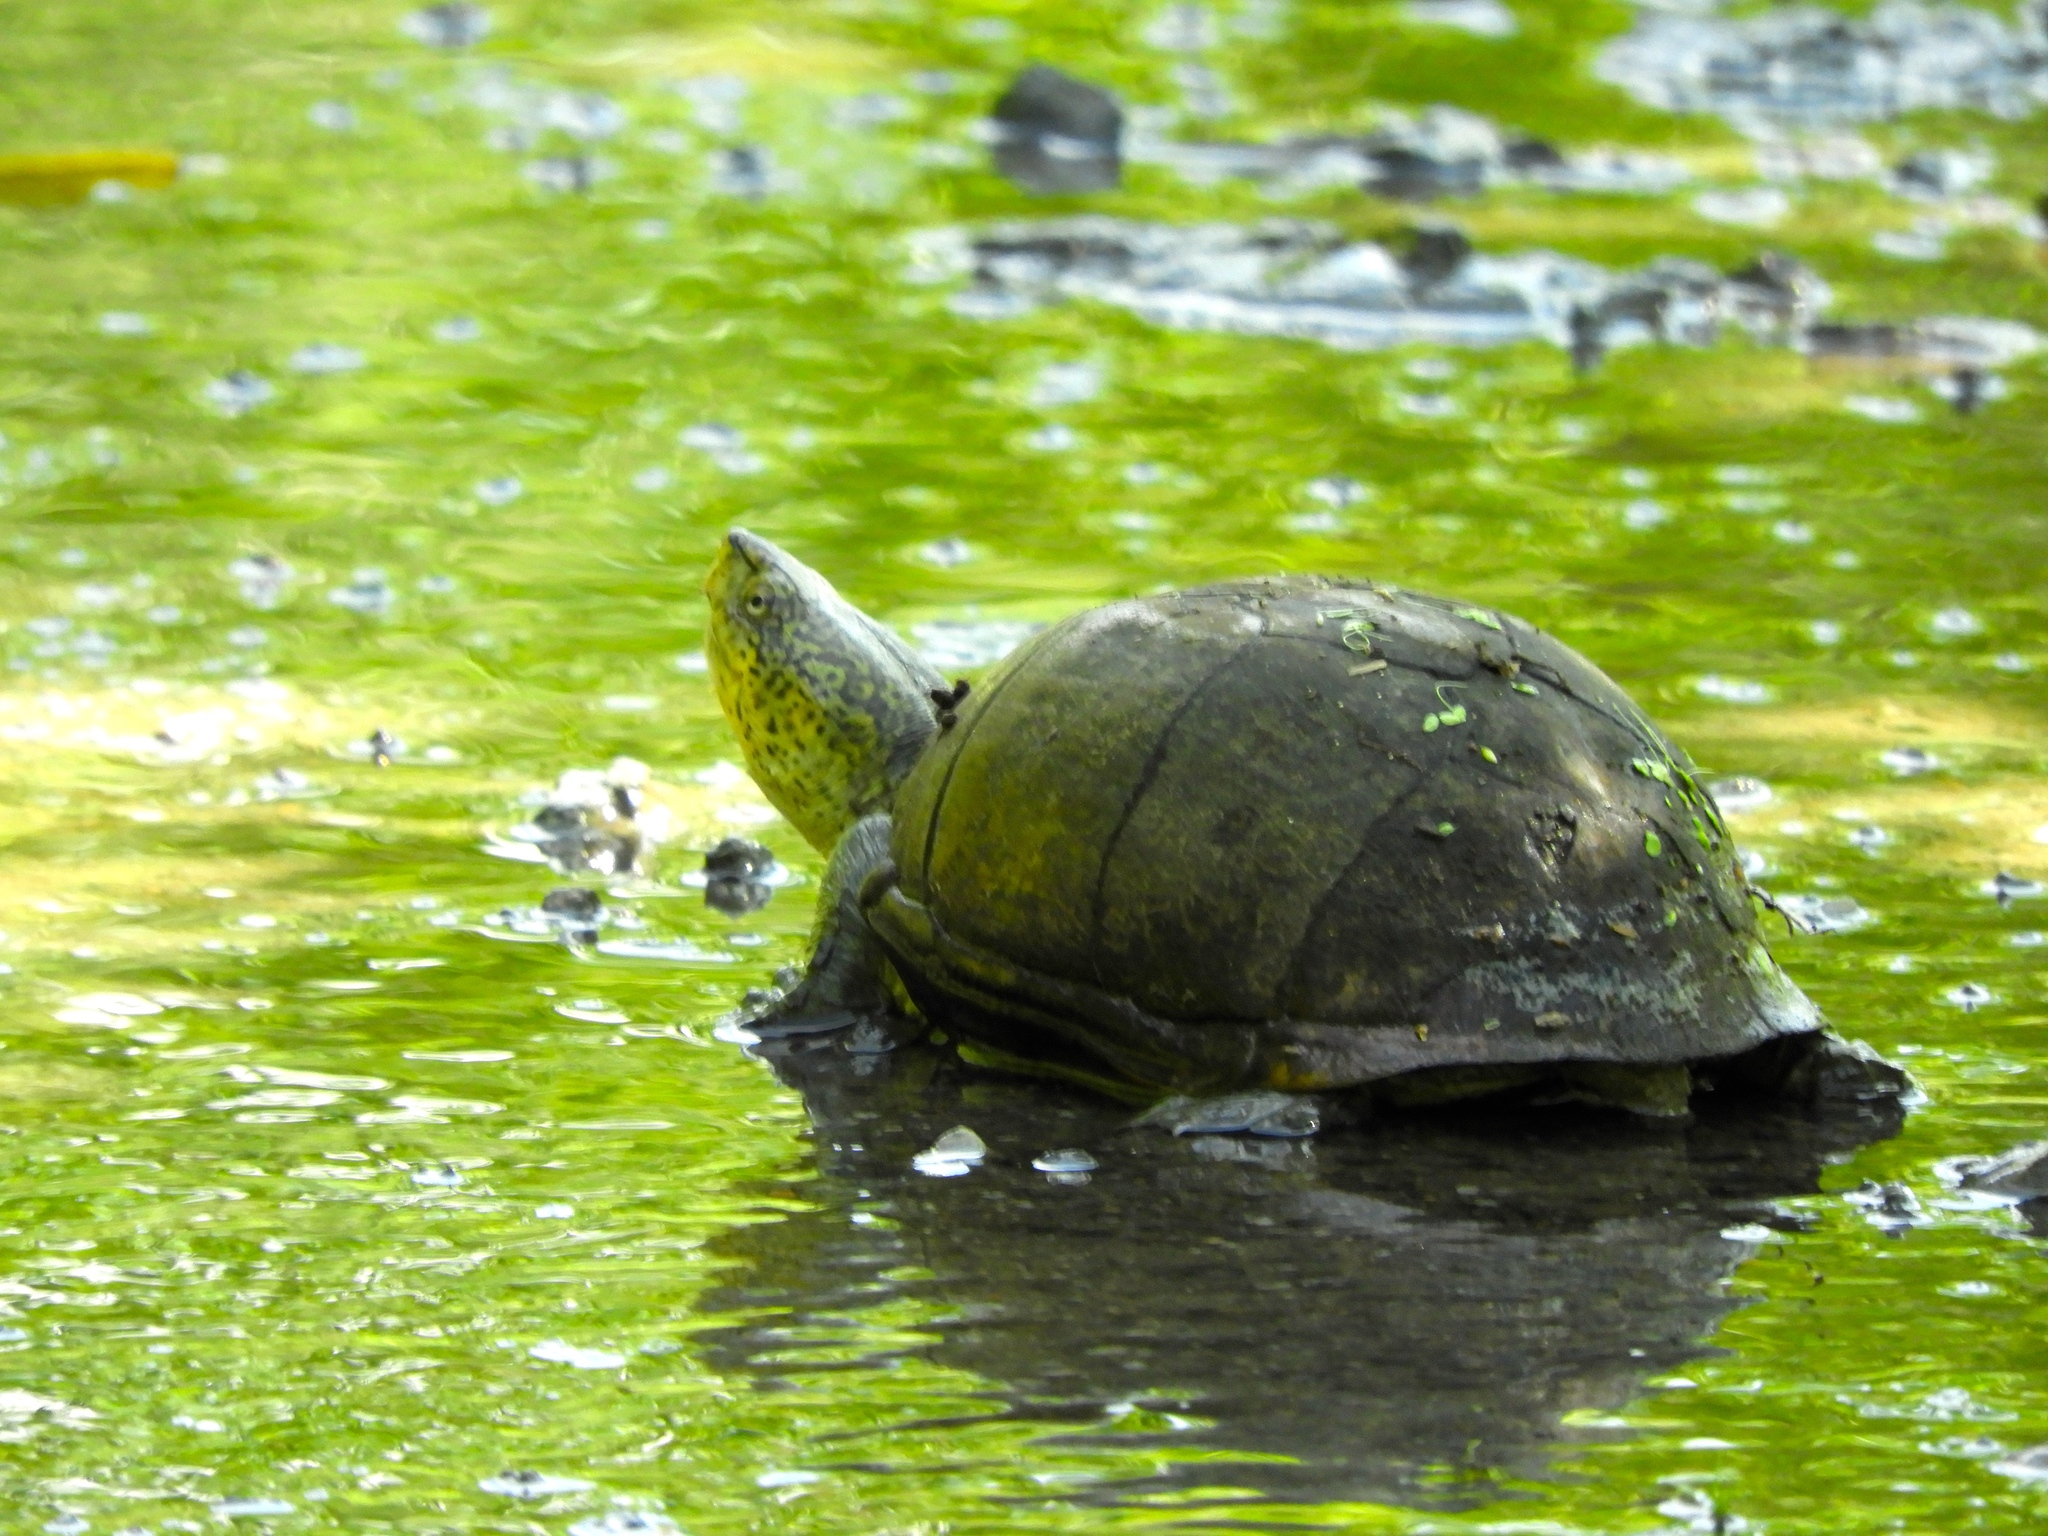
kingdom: Animalia
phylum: Chordata
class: Testudines
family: Kinosternidae
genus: Kinosternon
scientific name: Kinosternon integrum
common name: Mexican mud turtle
